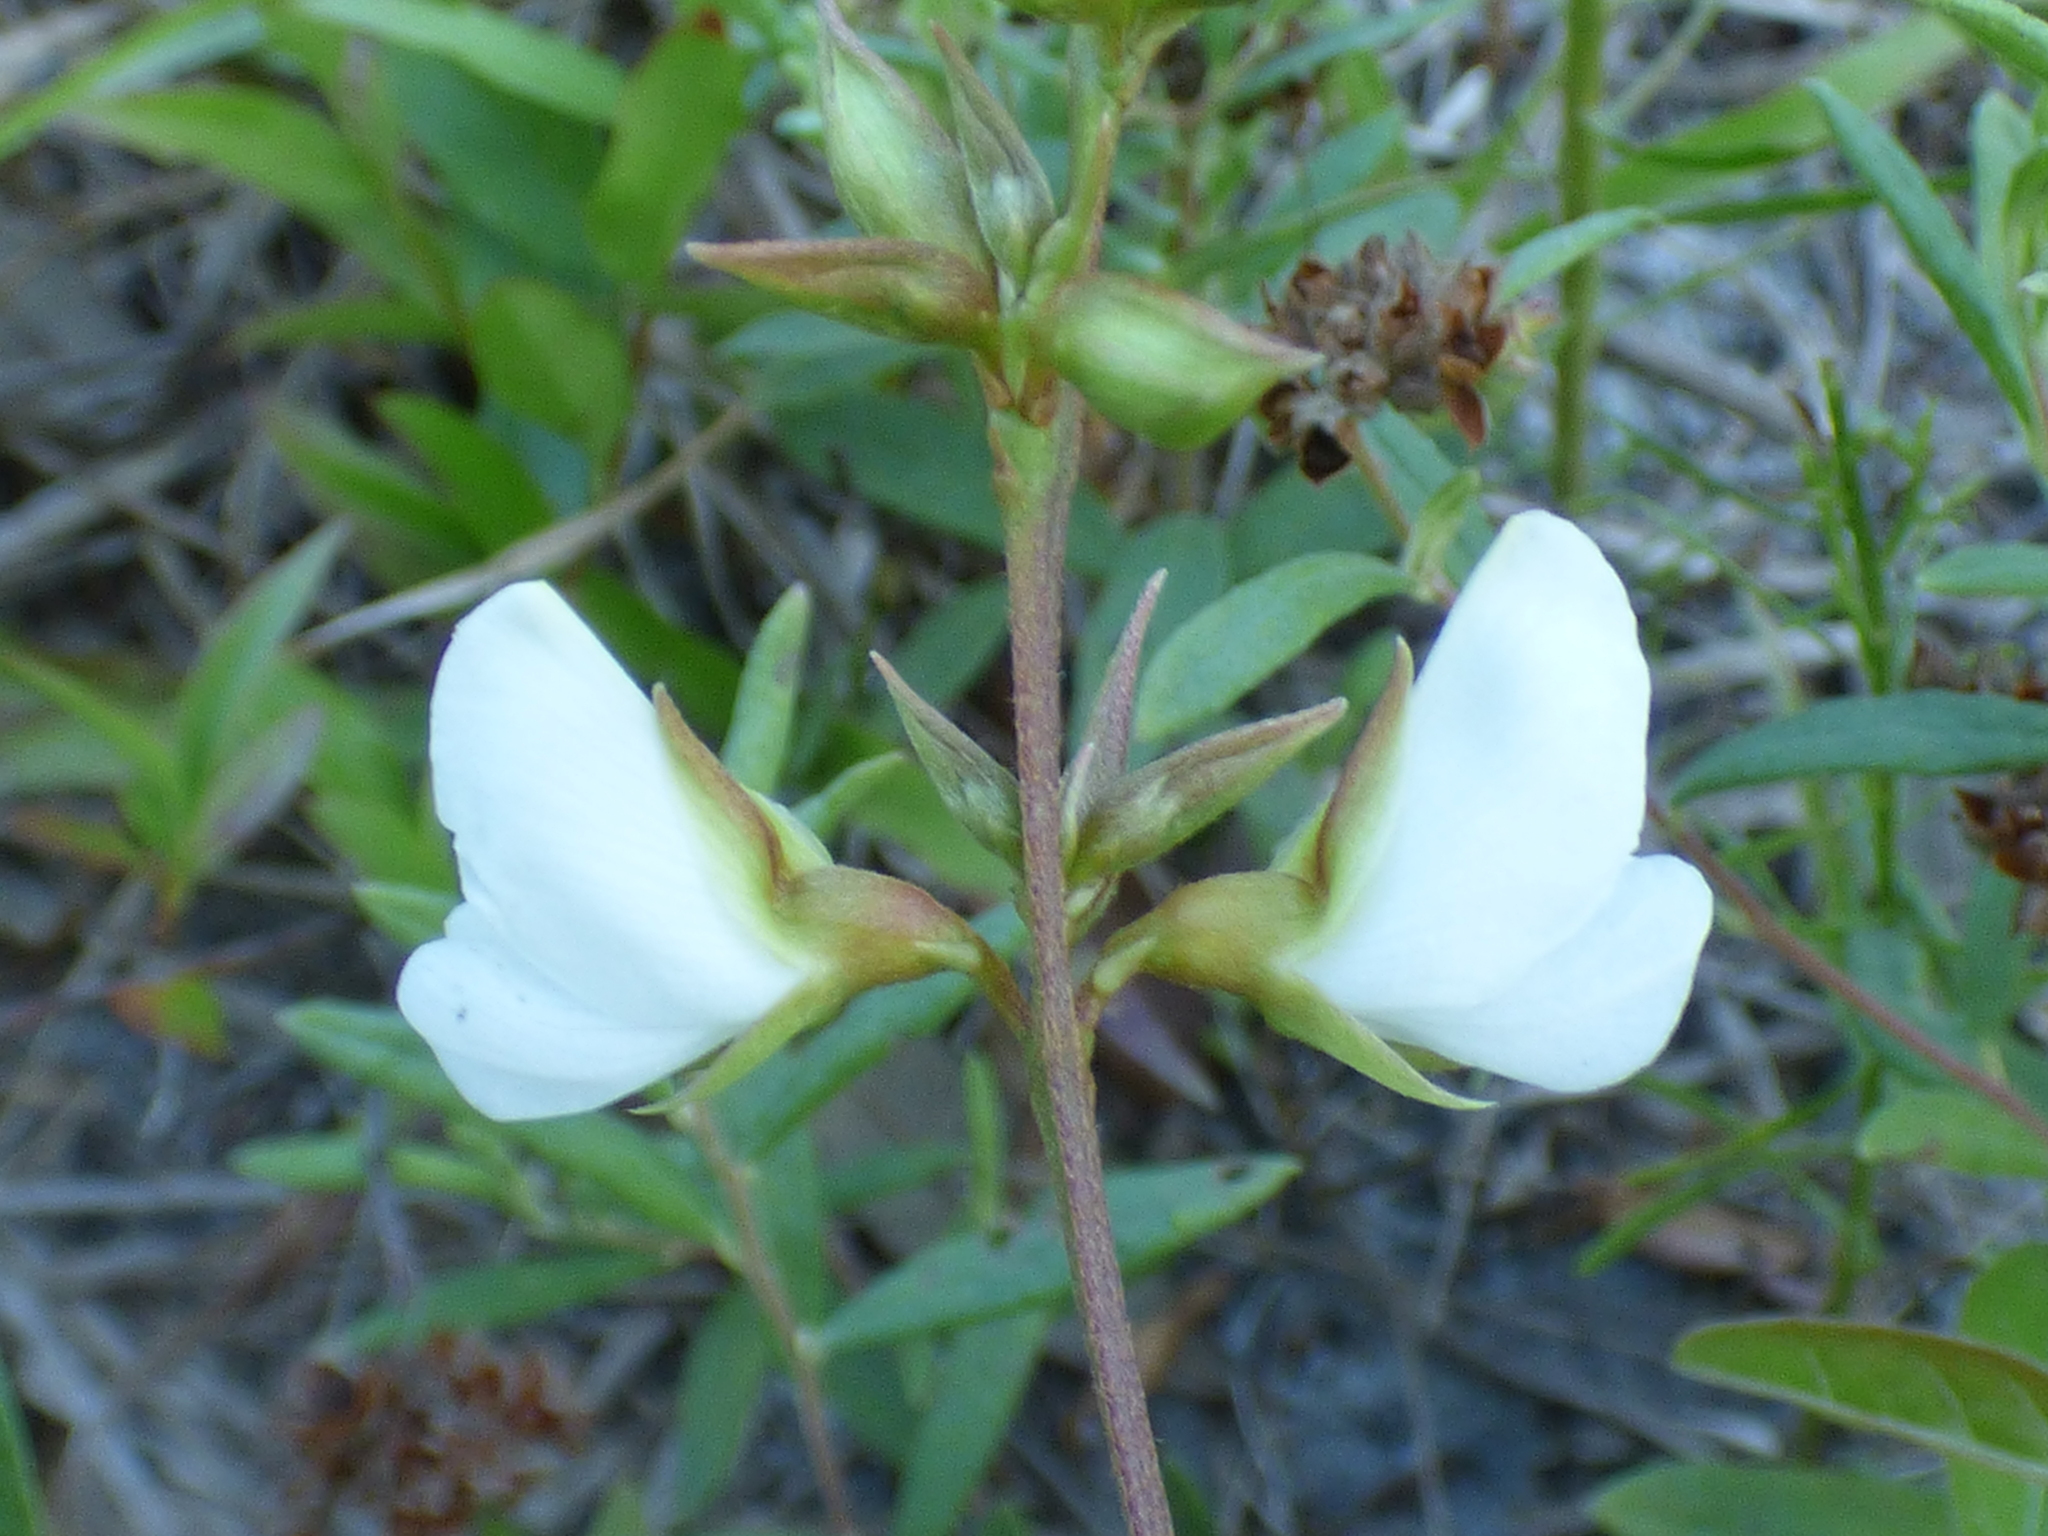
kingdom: Plantae
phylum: Tracheophyta
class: Magnoliopsida
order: Fabales
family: Fabaceae
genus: Galactia
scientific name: Galactia elliottii
